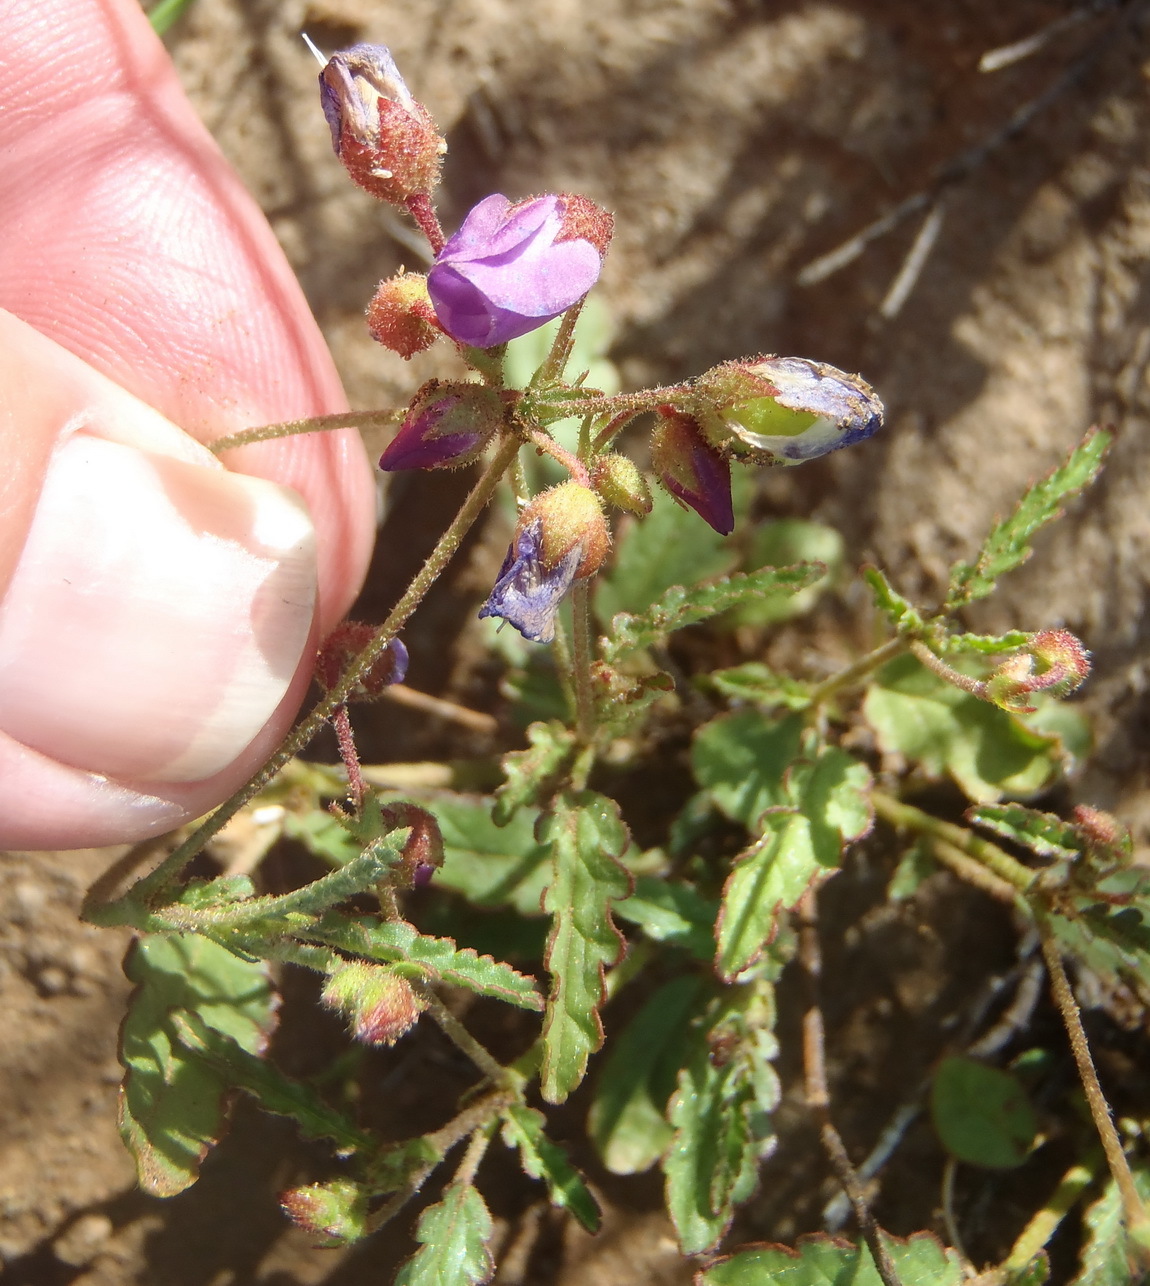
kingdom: Plantae
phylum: Tracheophyta
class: Magnoliopsida
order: Malvales
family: Malvaceae
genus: Hermannia
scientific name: Hermannia coccocarpa
